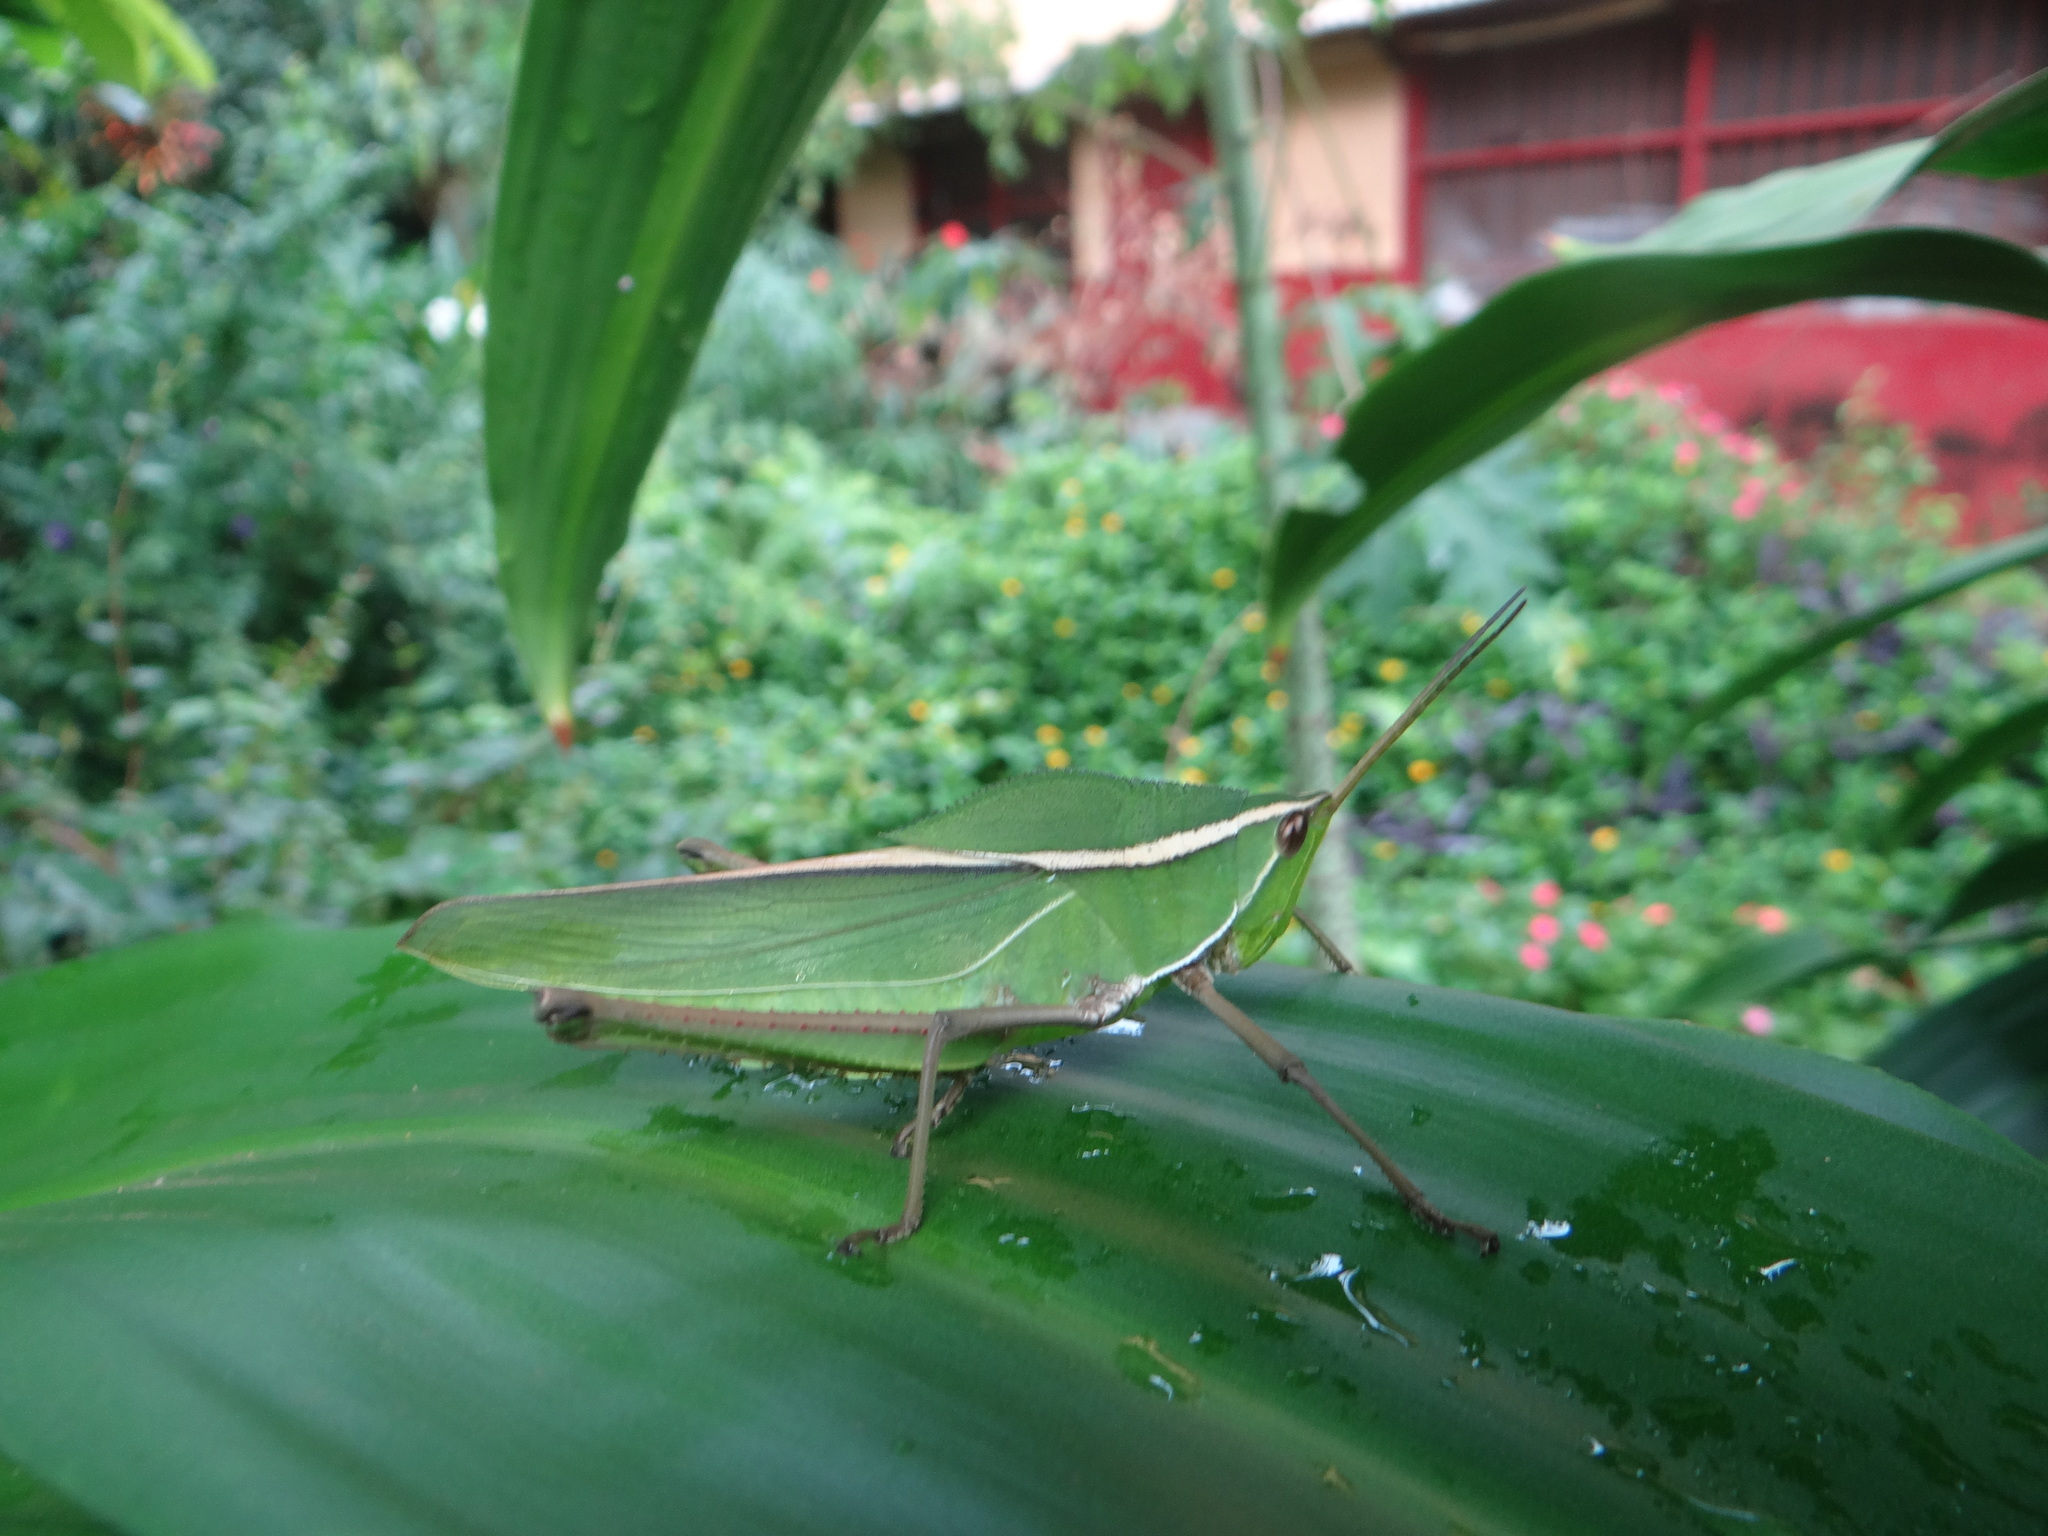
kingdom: Animalia
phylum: Arthropoda
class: Insecta
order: Orthoptera
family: Romaleidae
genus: Prionolopha
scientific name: Prionolopha serrata
